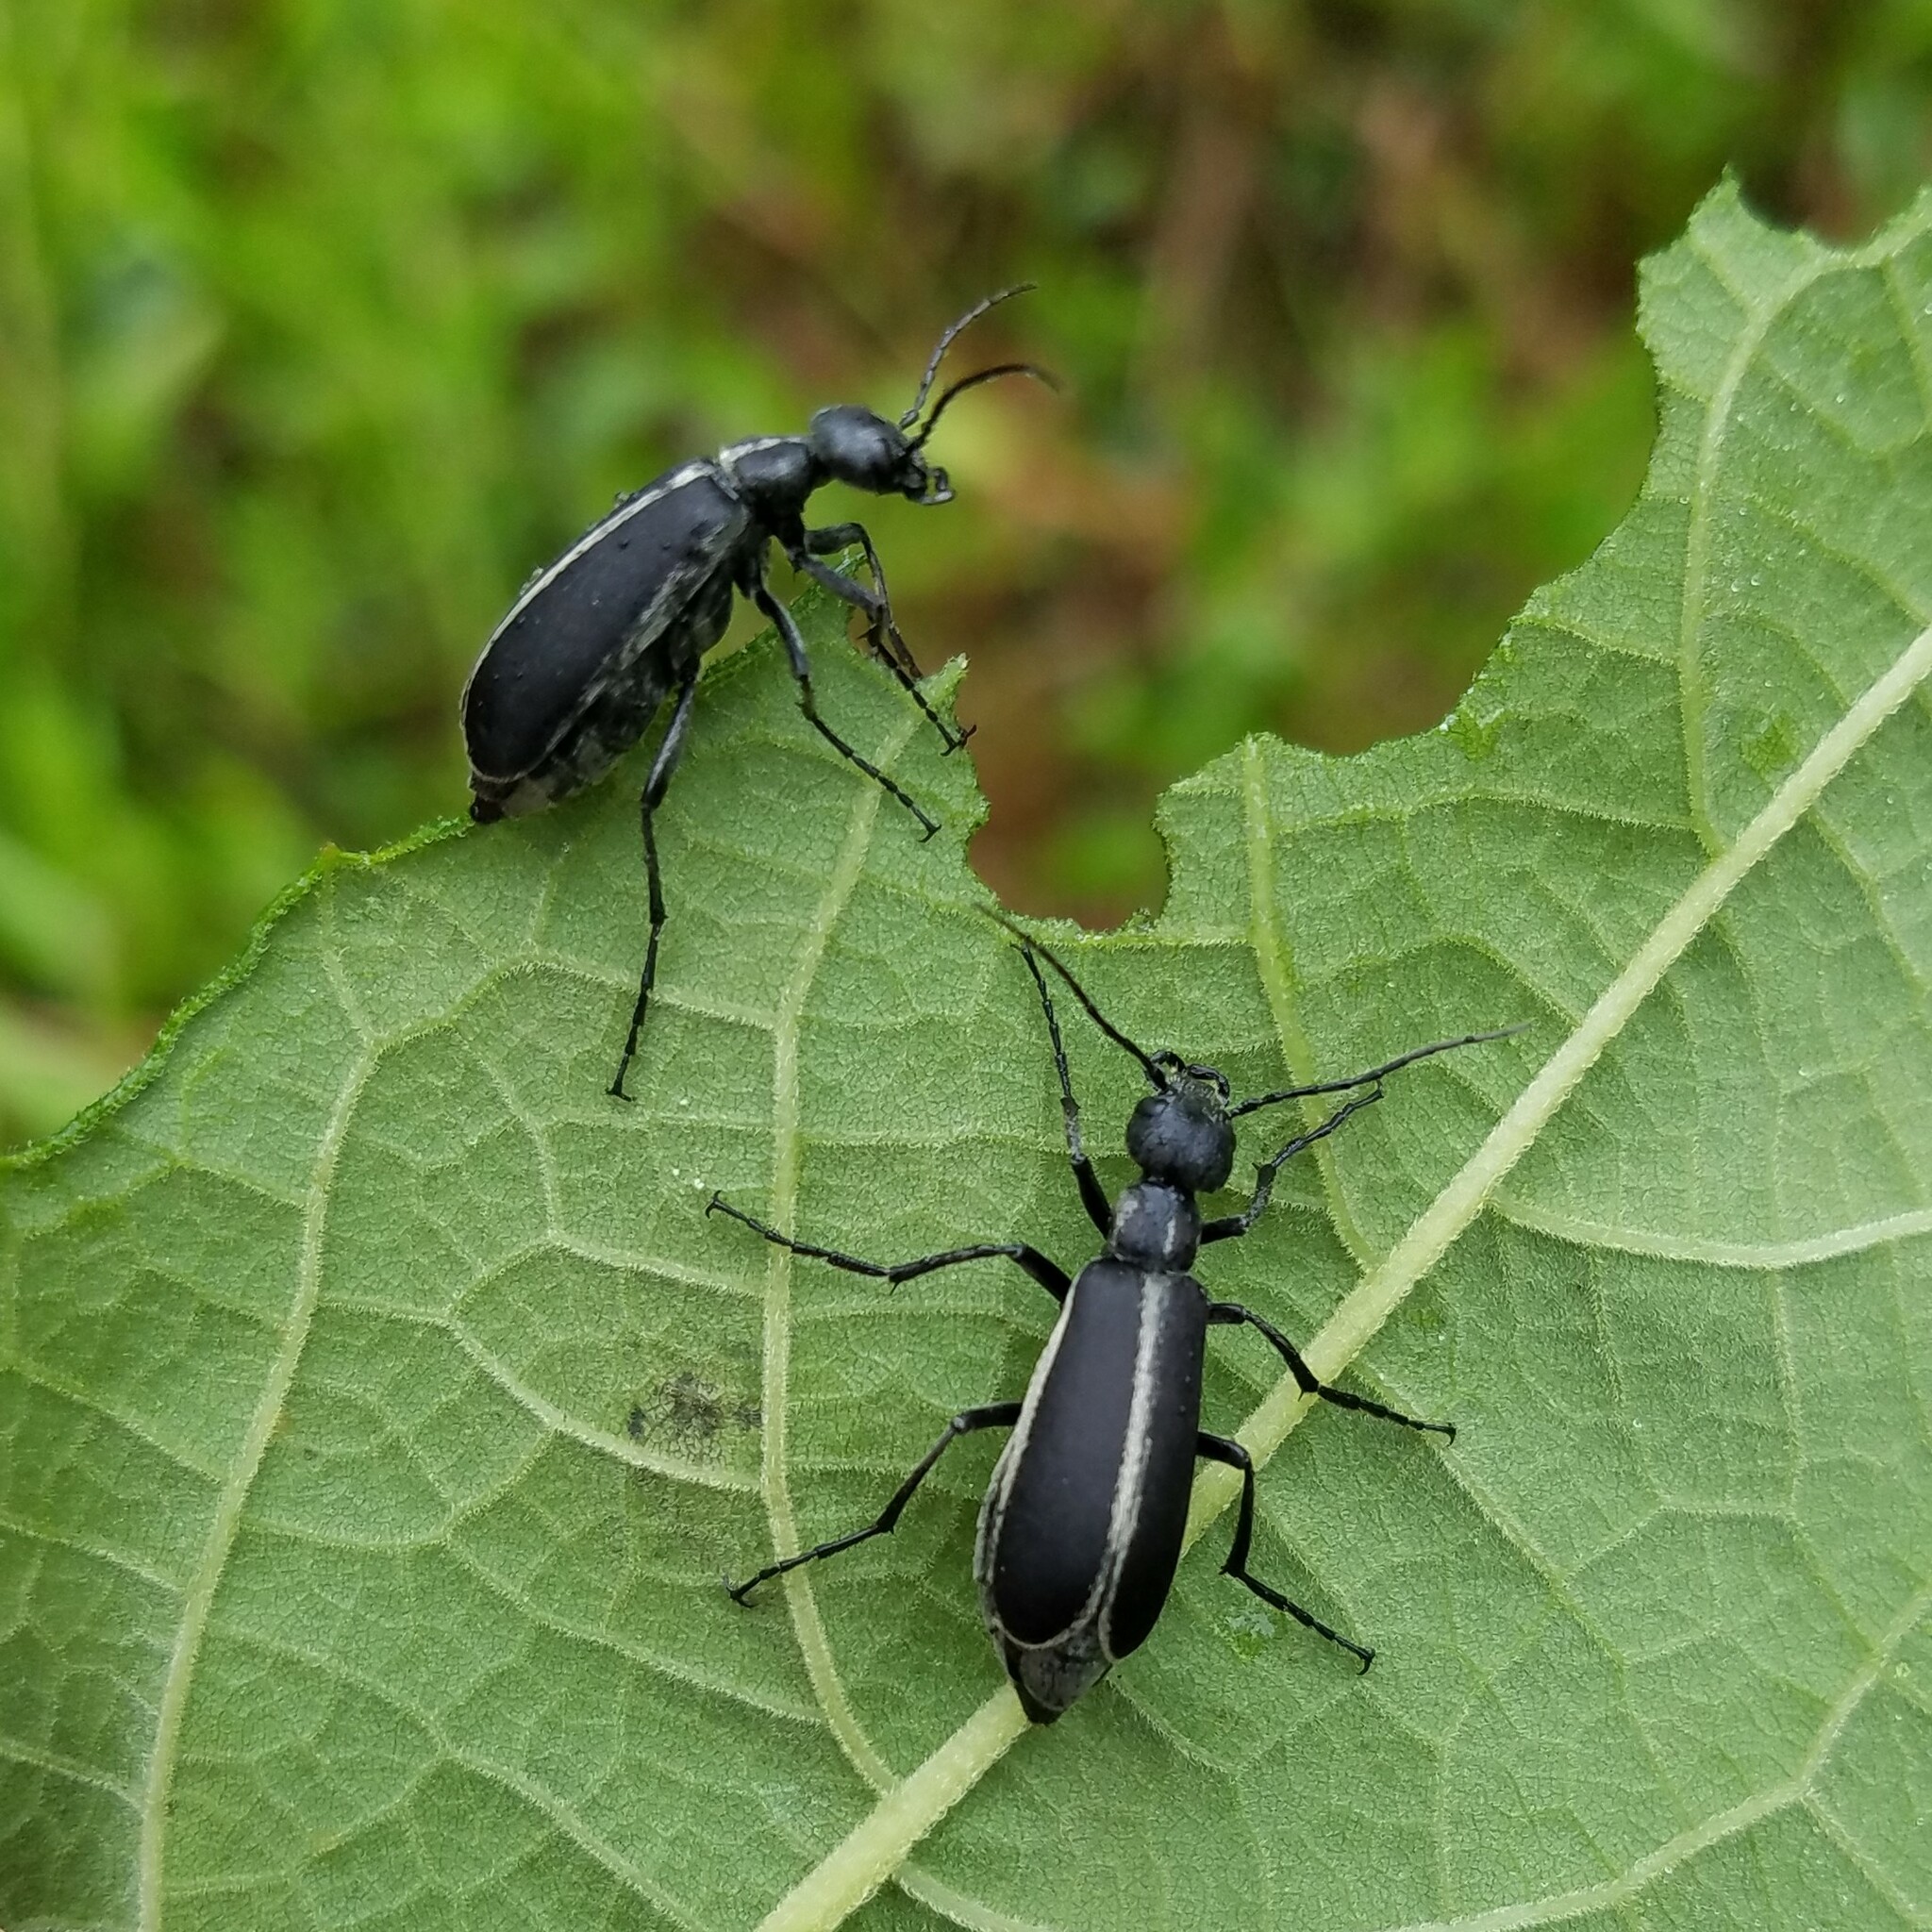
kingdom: Animalia
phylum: Arthropoda
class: Insecta
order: Coleoptera
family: Meloidae
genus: Epicauta
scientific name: Epicauta funebris
